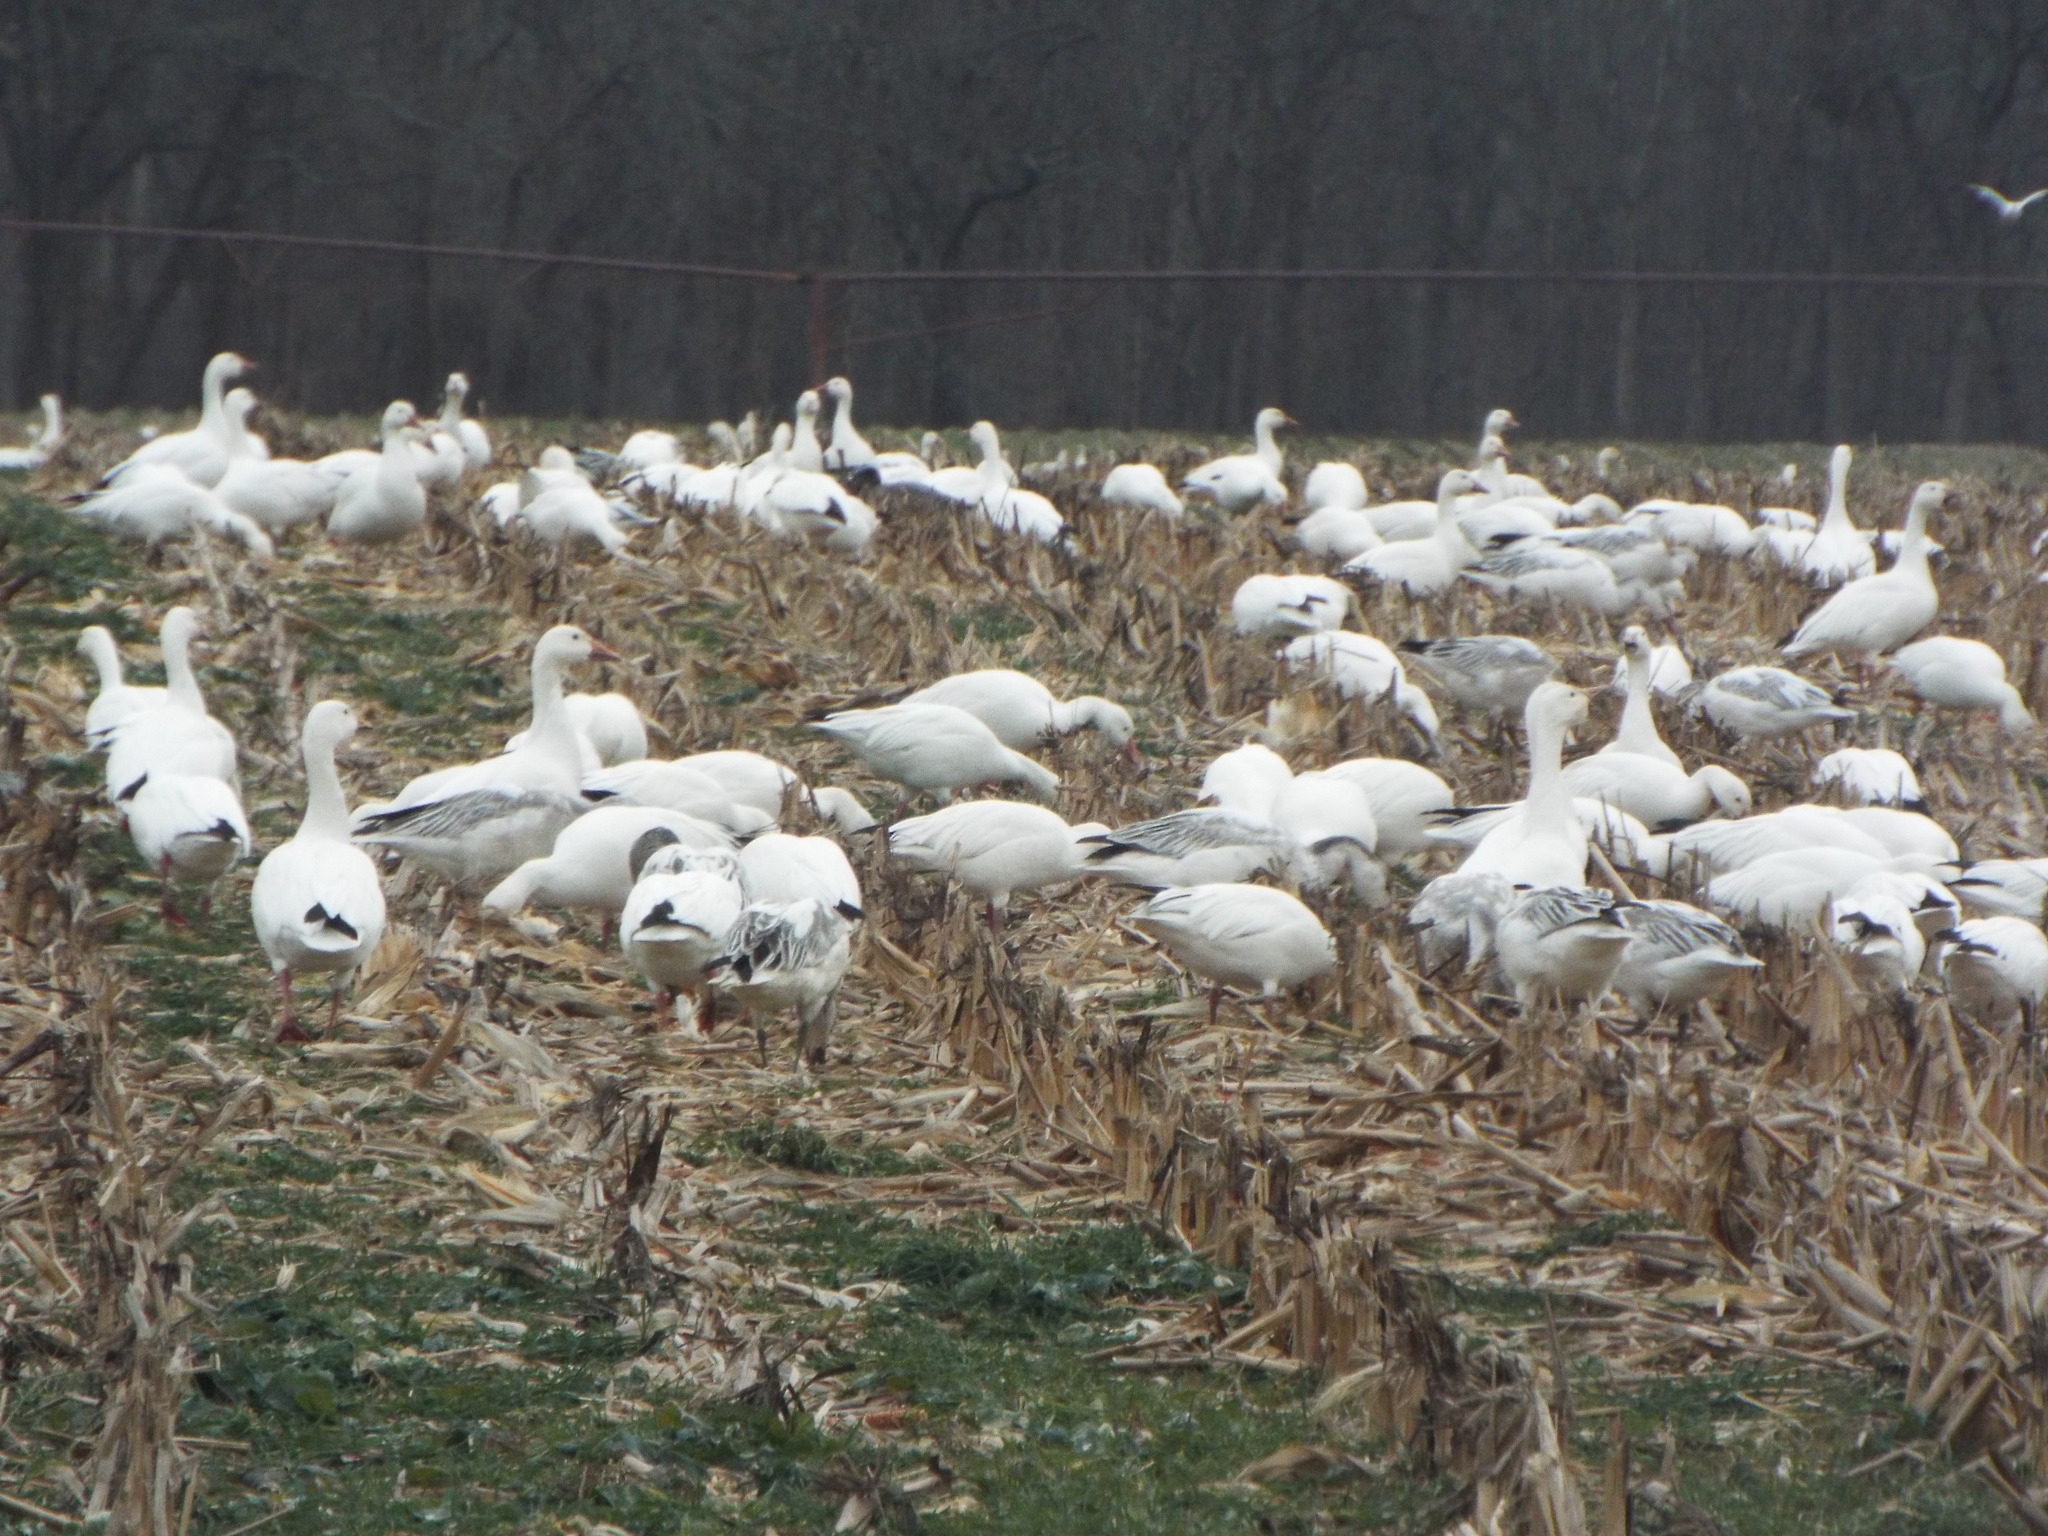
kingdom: Animalia
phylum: Chordata
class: Aves
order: Anseriformes
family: Anatidae
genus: Anser
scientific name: Anser caerulescens
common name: Snow goose
